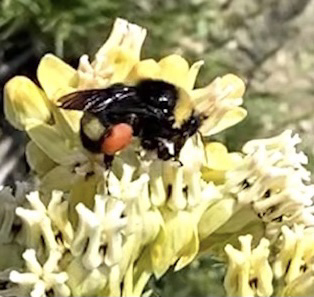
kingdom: Animalia
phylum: Arthropoda
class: Insecta
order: Hymenoptera
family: Apidae
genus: Bombus
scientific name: Bombus crotchii
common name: Crotch bumble bee
